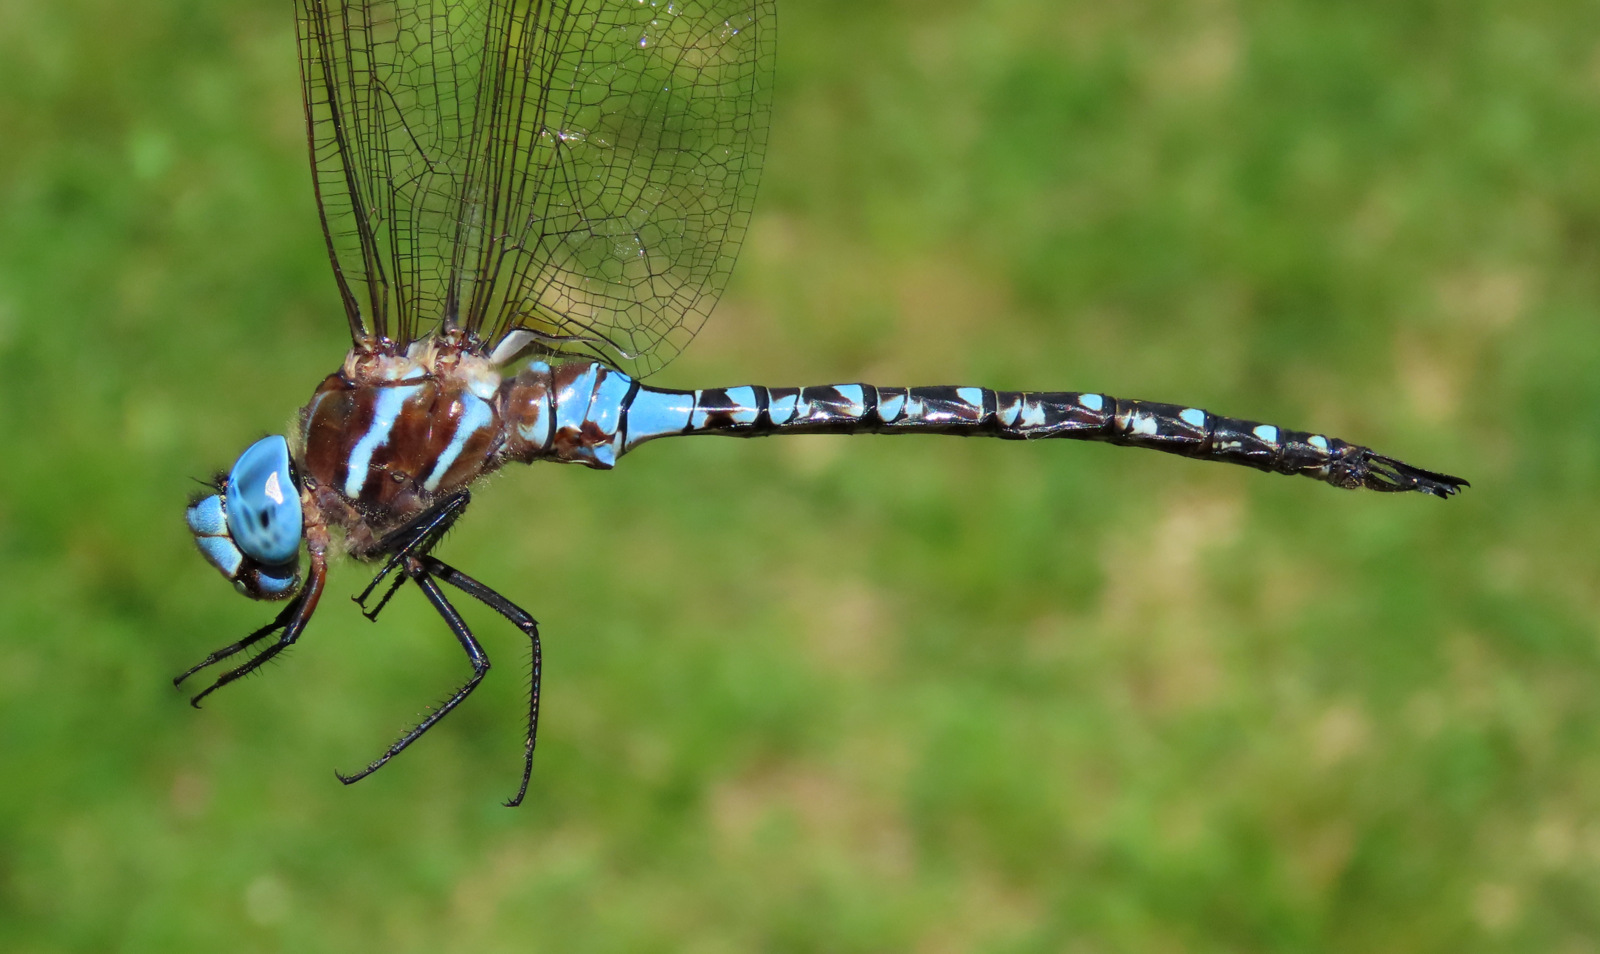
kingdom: Animalia
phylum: Arthropoda
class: Insecta
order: Odonata
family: Aeshnidae
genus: Rhionaeschna
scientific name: Rhionaeschna mutata
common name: Spatterdock darner
